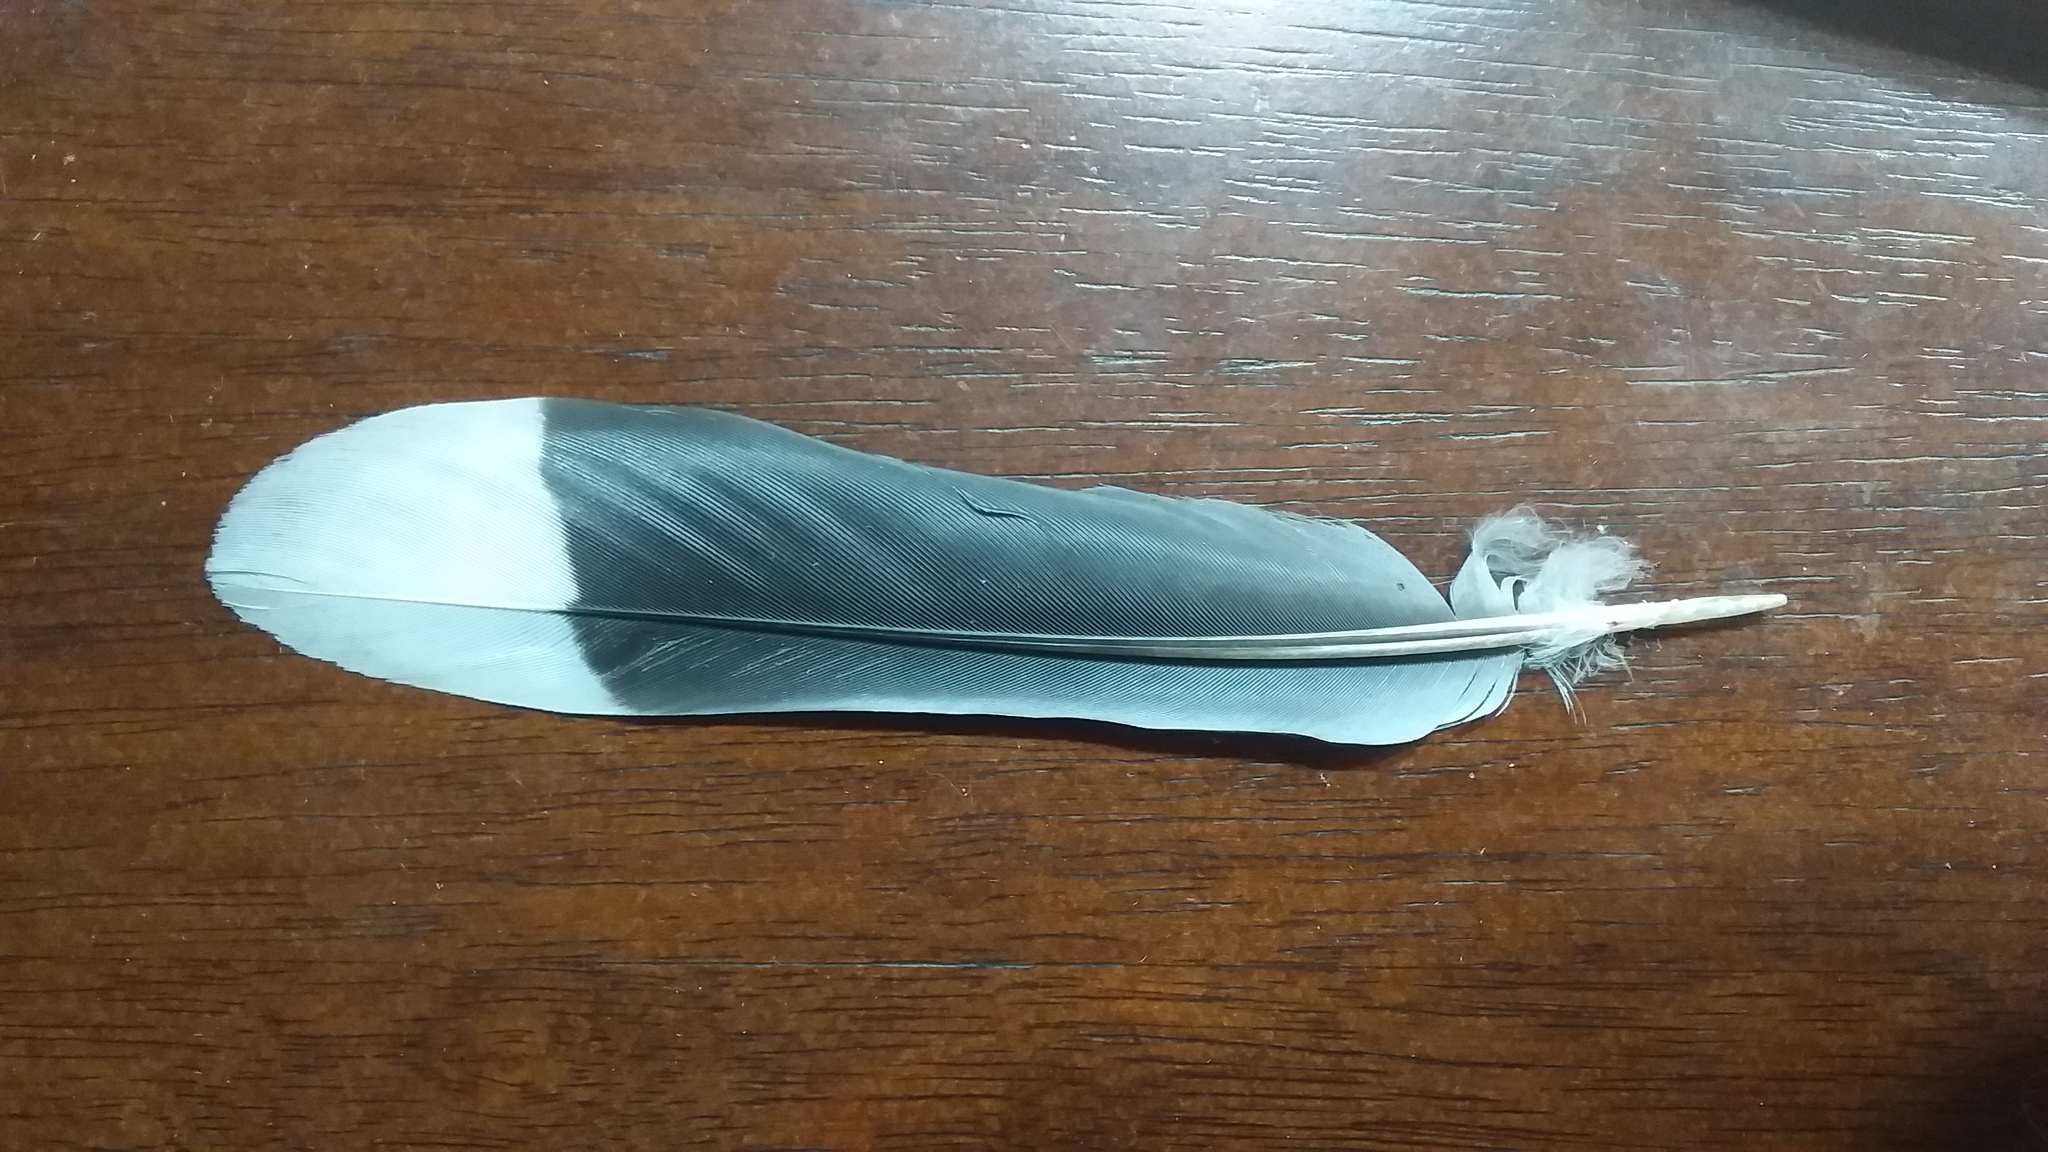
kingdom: Animalia
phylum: Chordata
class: Aves
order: Columbiformes
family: Columbidae
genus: Zenaida
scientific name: Zenaida asiatica
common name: White-winged dove
